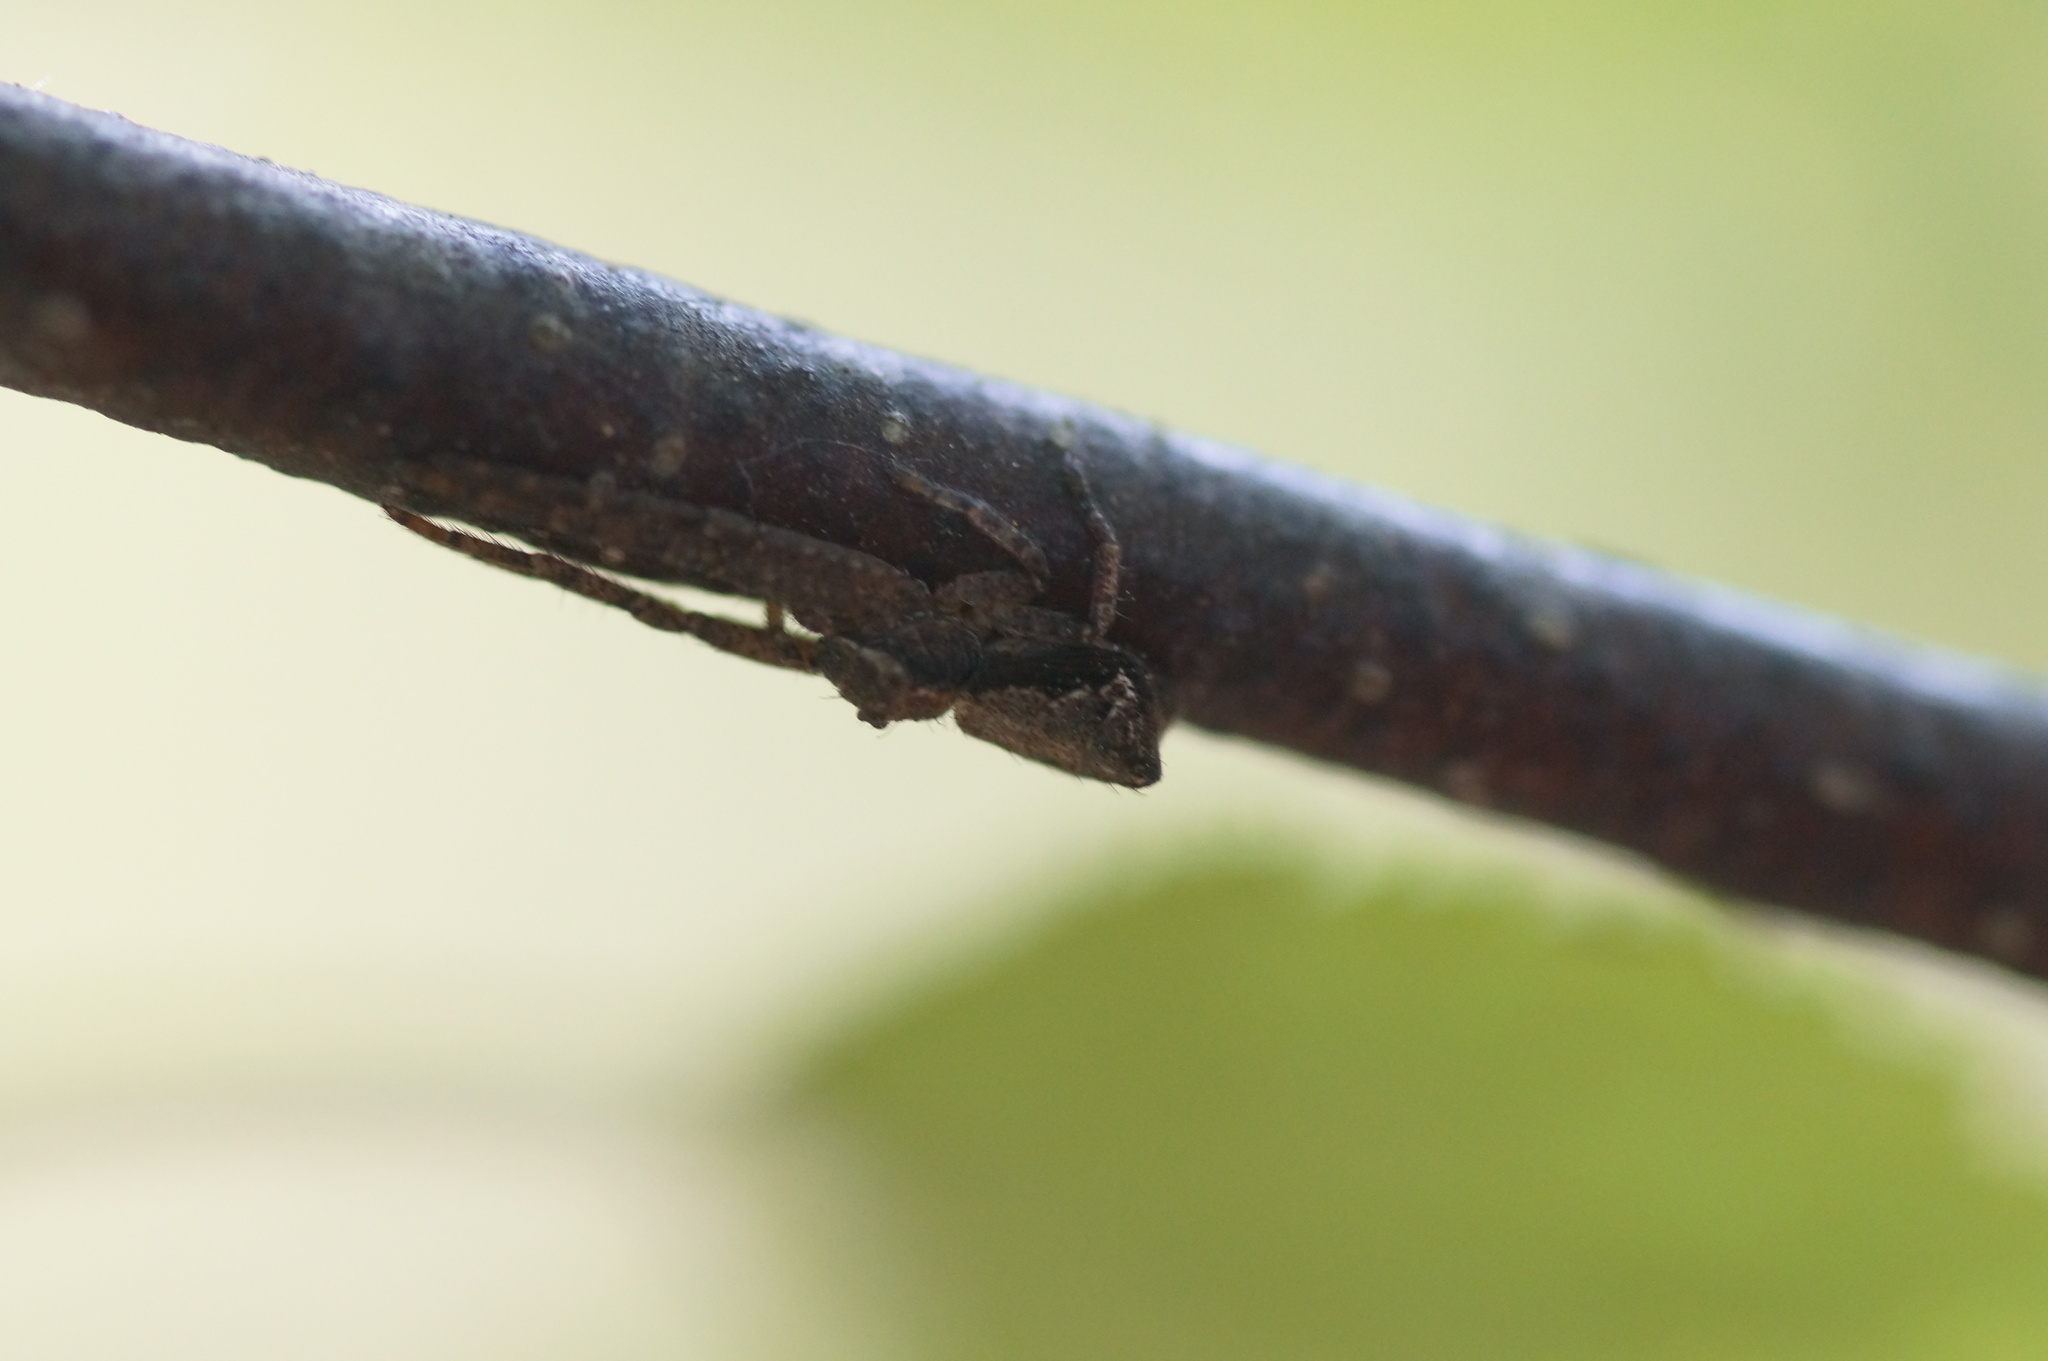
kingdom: Animalia
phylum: Arthropoda
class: Arachnida
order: Araneae
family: Thomisidae
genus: Tmarus
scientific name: Tmarus piger
